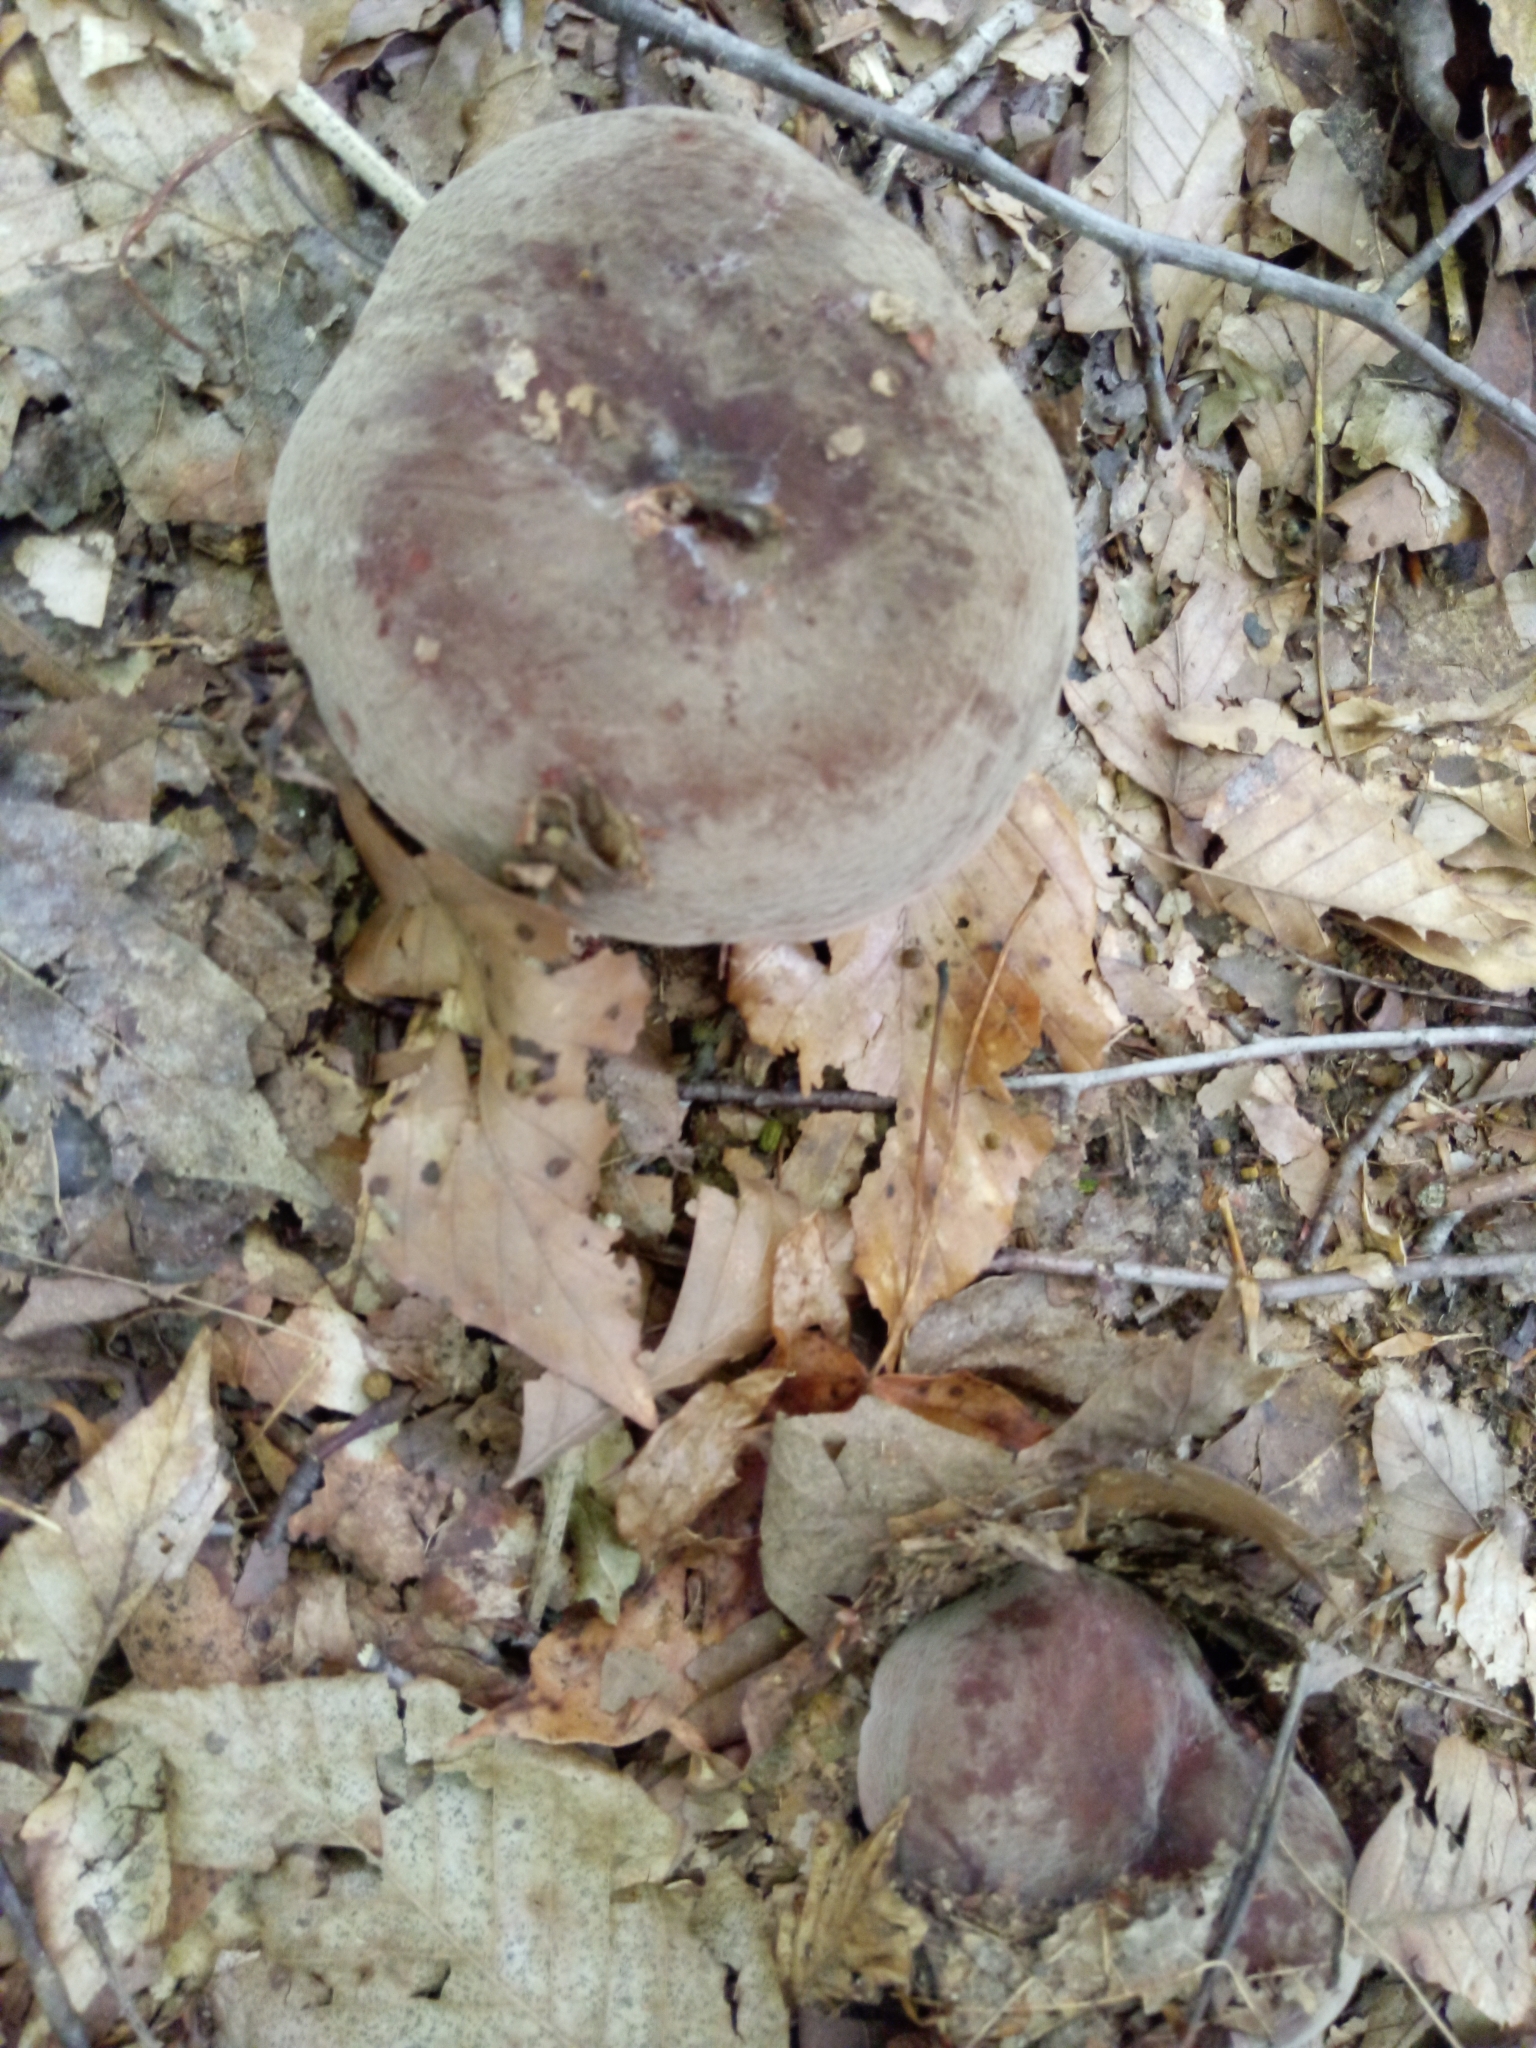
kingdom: Fungi
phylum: Basidiomycota
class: Agaricomycetes
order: Russulales
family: Russulaceae
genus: Lactarius
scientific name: Lactarius corrugis
